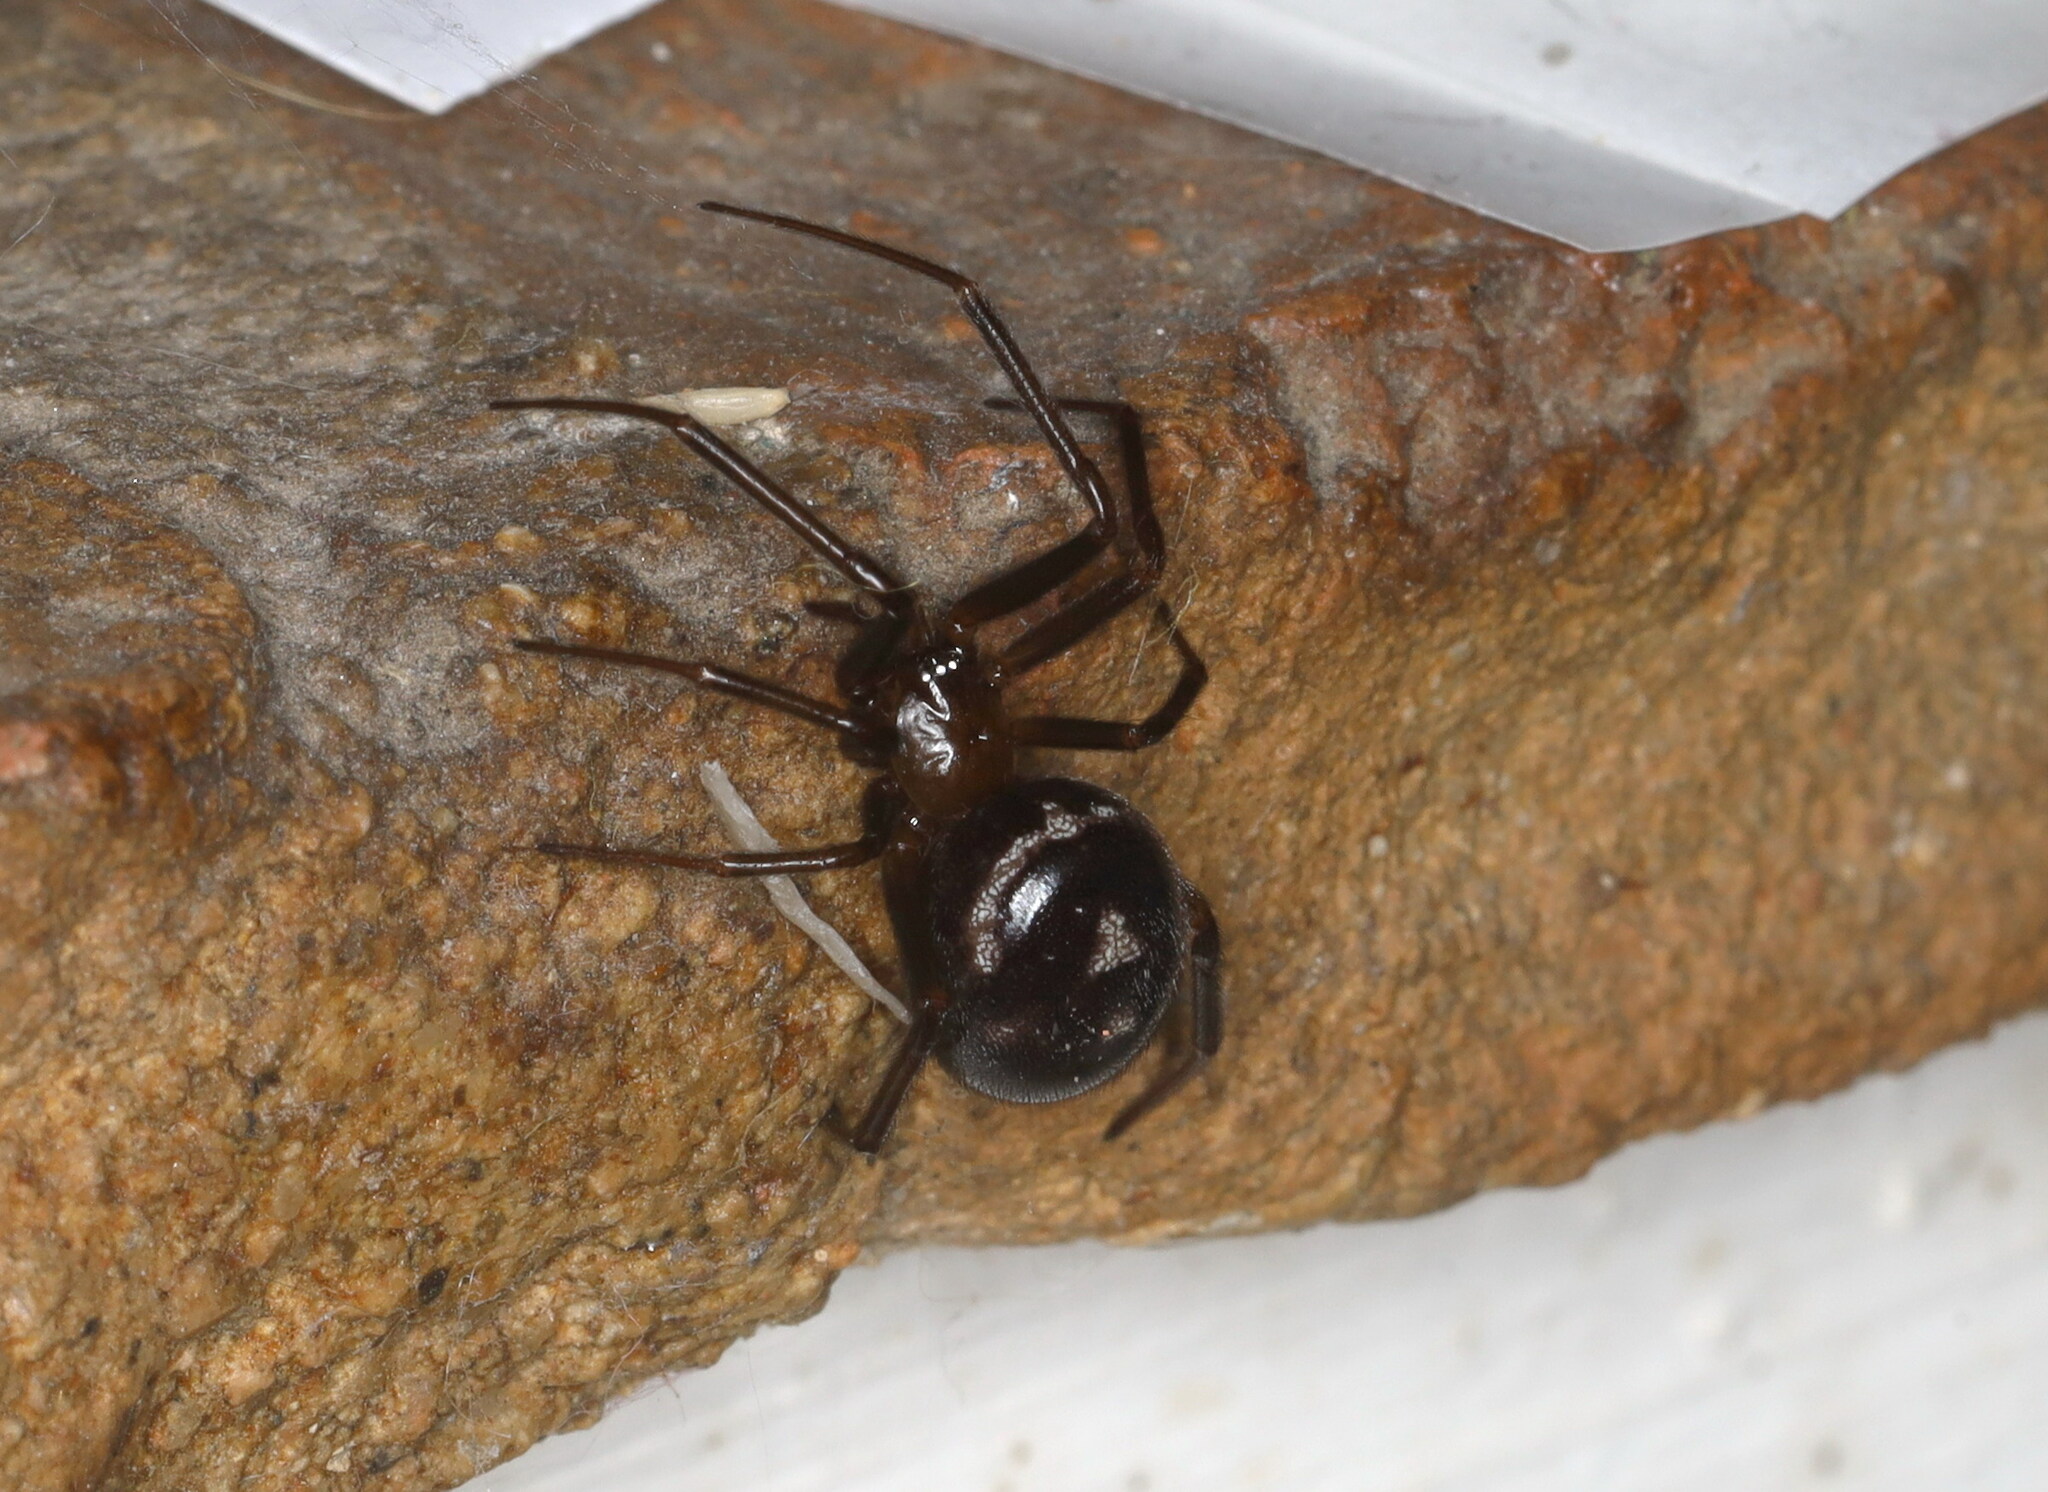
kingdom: Animalia
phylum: Arthropoda
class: Arachnida
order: Araneae
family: Theridiidae
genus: Steatoda
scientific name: Steatoda grossa
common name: False black widow
